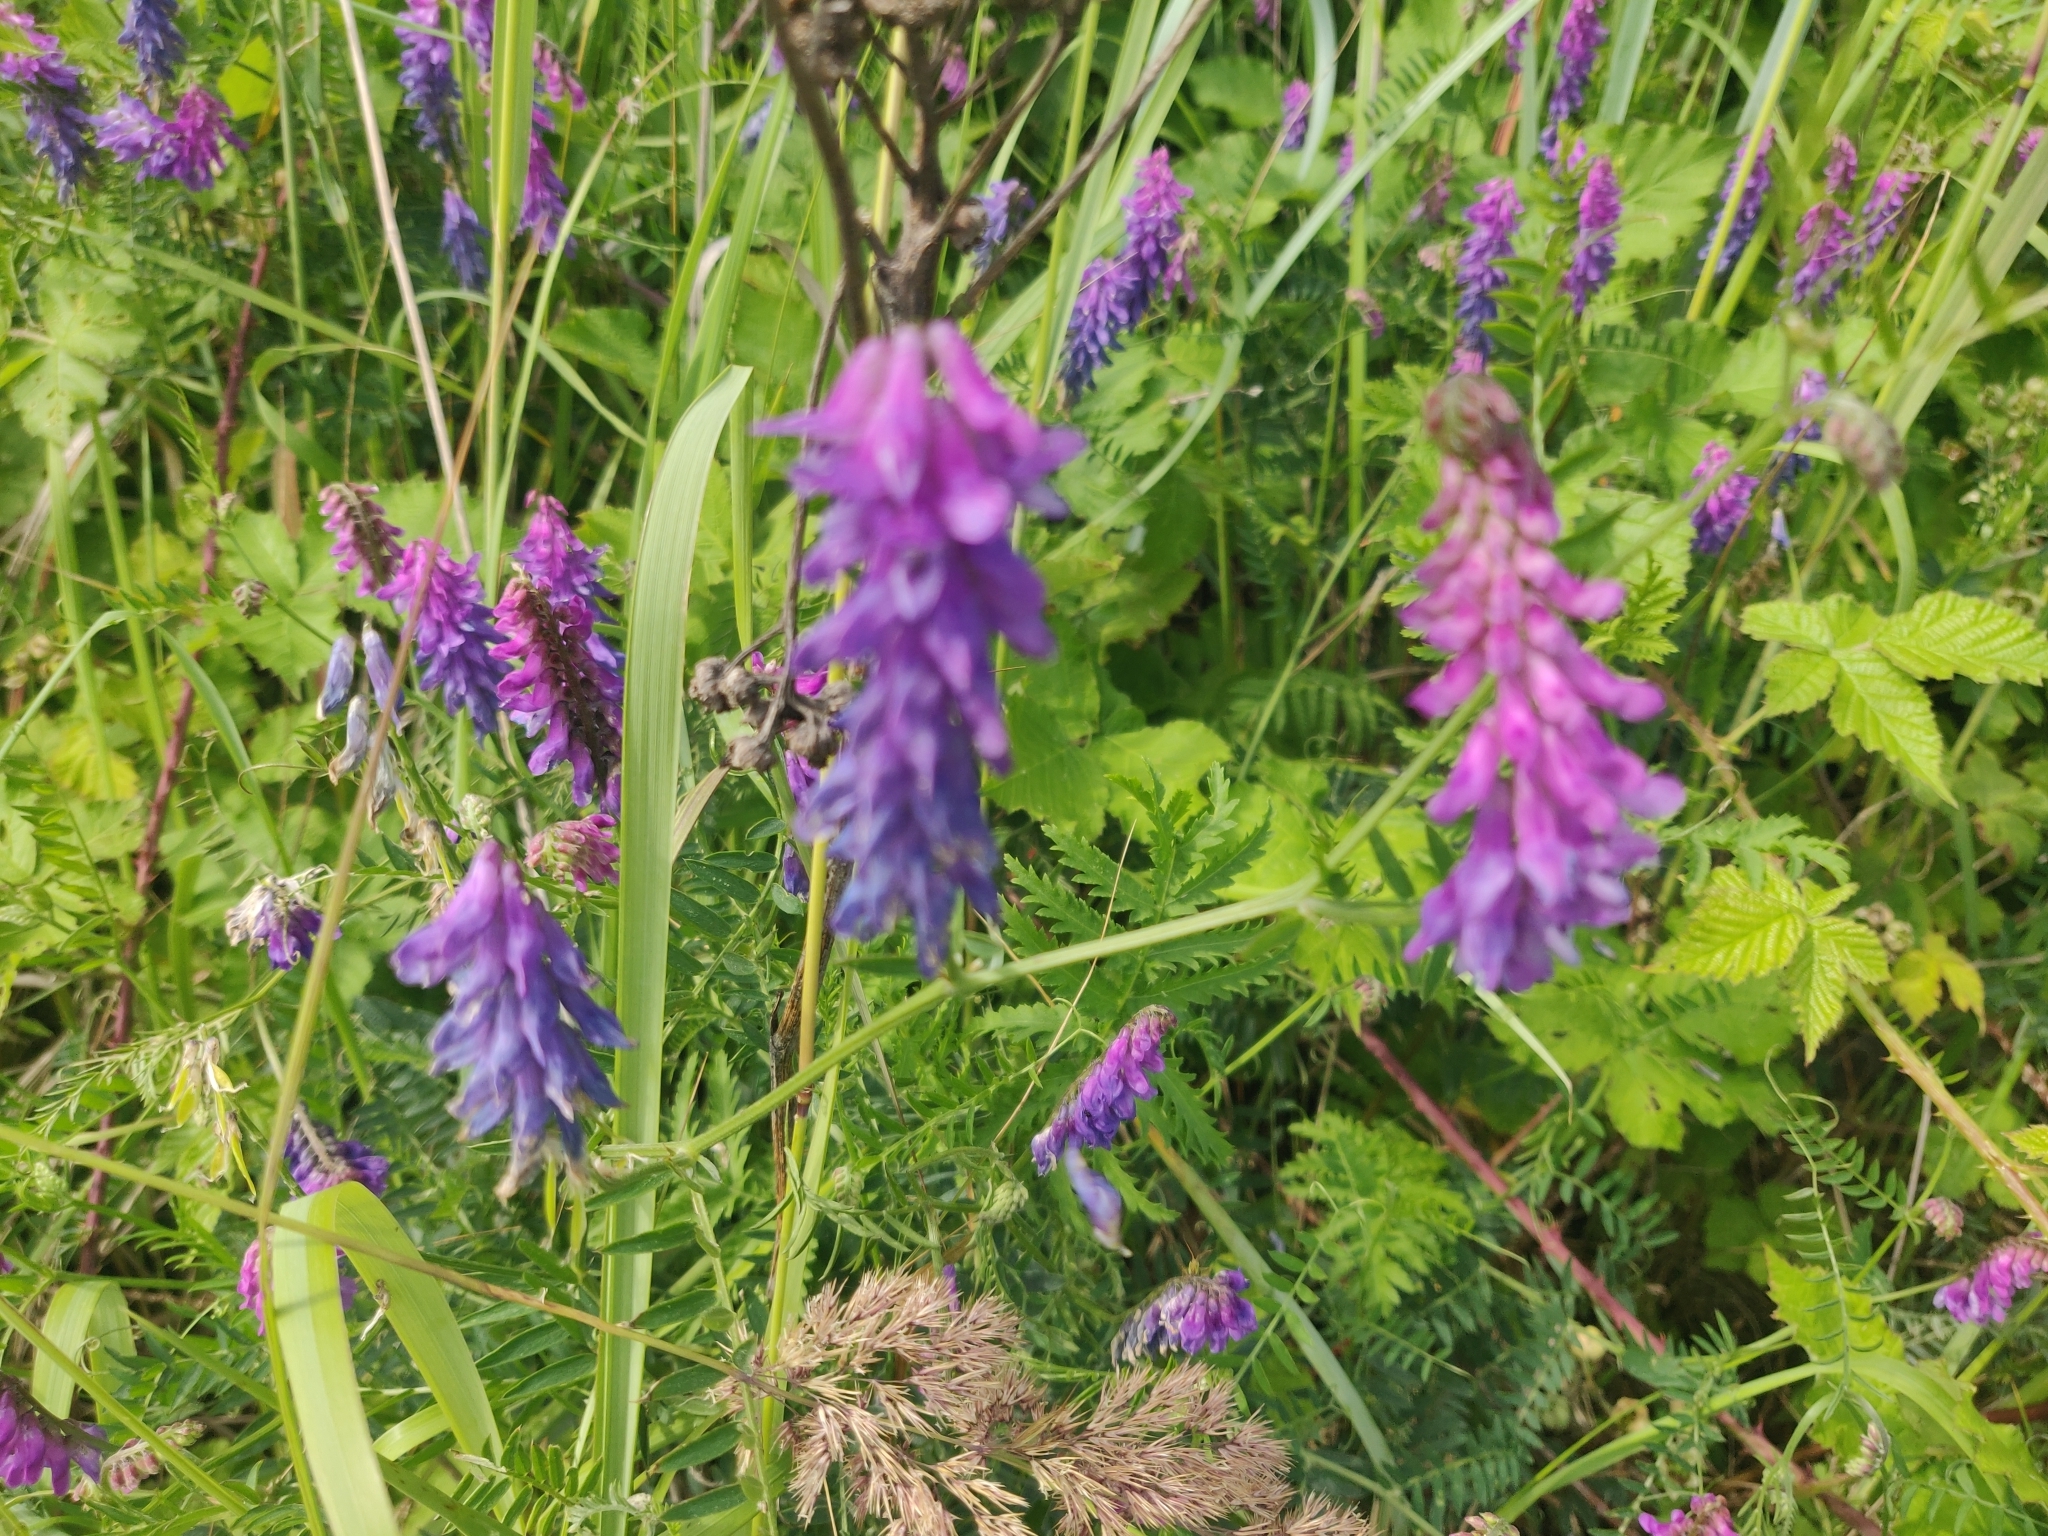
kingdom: Plantae
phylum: Tracheophyta
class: Magnoliopsida
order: Fabales
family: Fabaceae
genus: Vicia
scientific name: Vicia cracca
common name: Bird vetch
